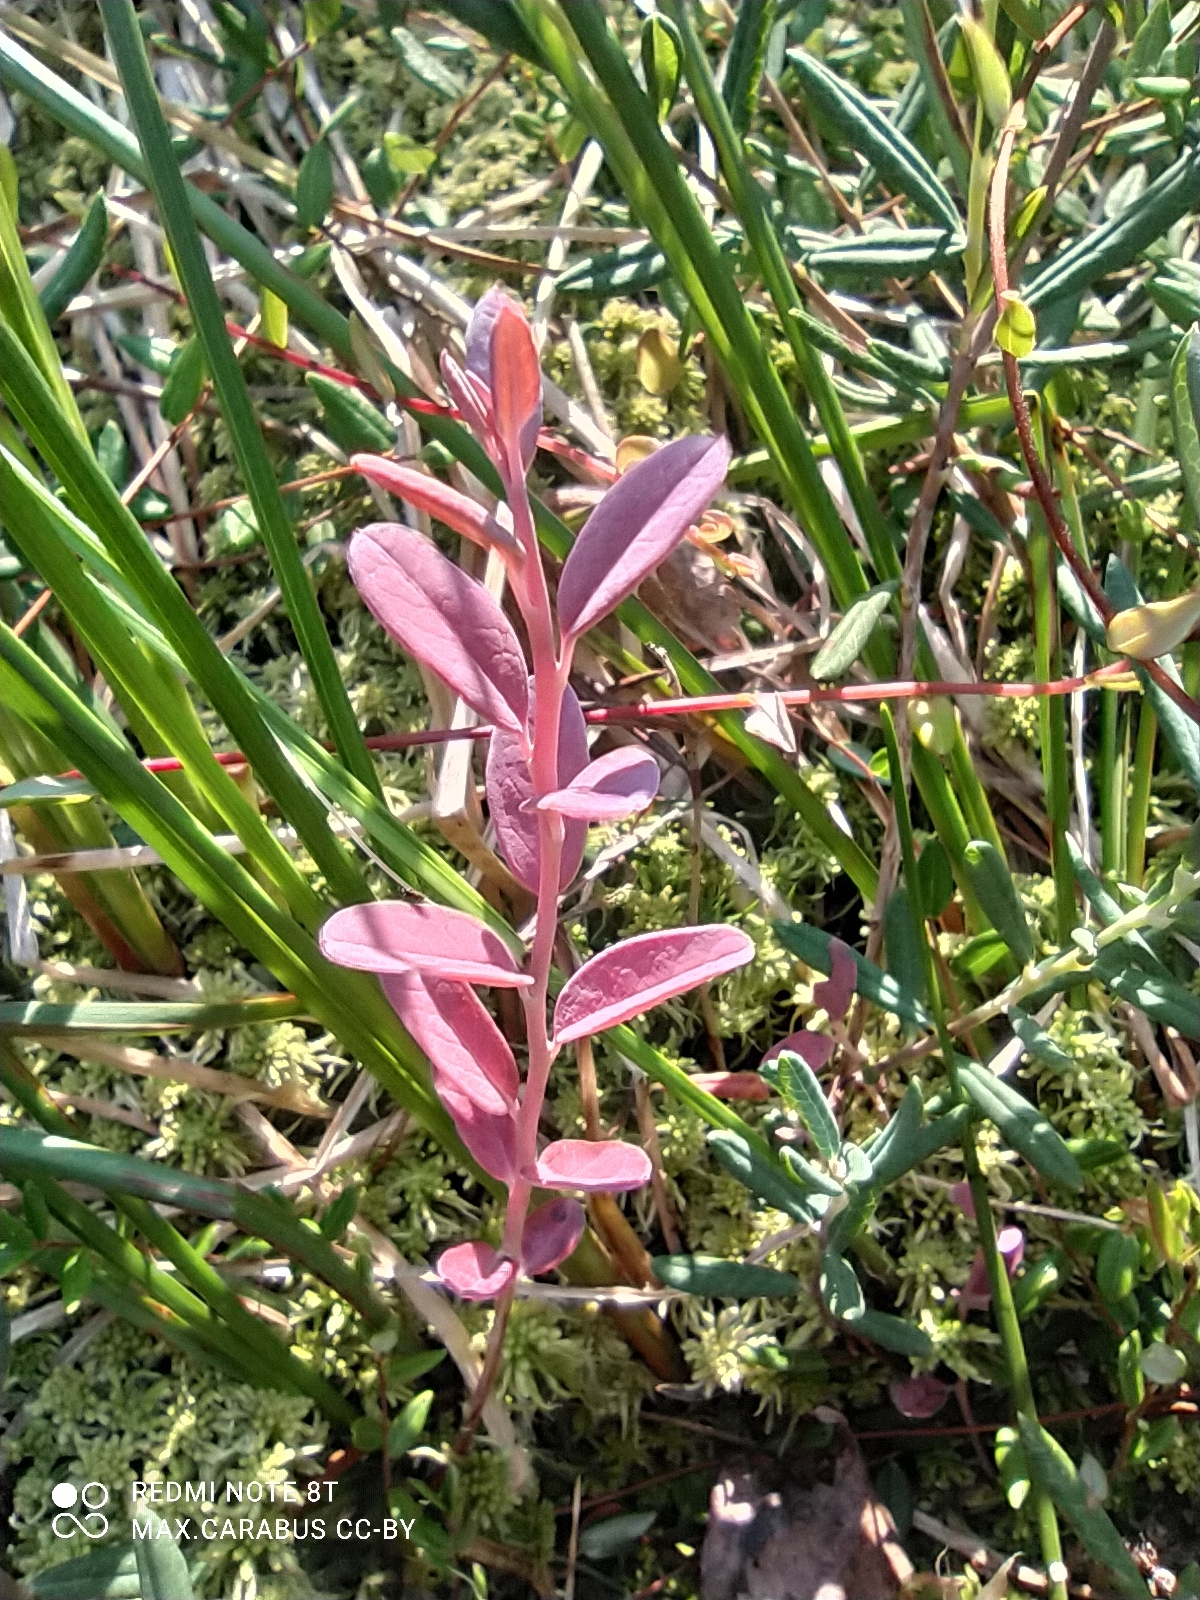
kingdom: Plantae
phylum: Tracheophyta
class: Magnoliopsida
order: Ericales
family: Ericaceae
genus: Andromeda
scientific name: Andromeda polifolia
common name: Bog-rosemary
